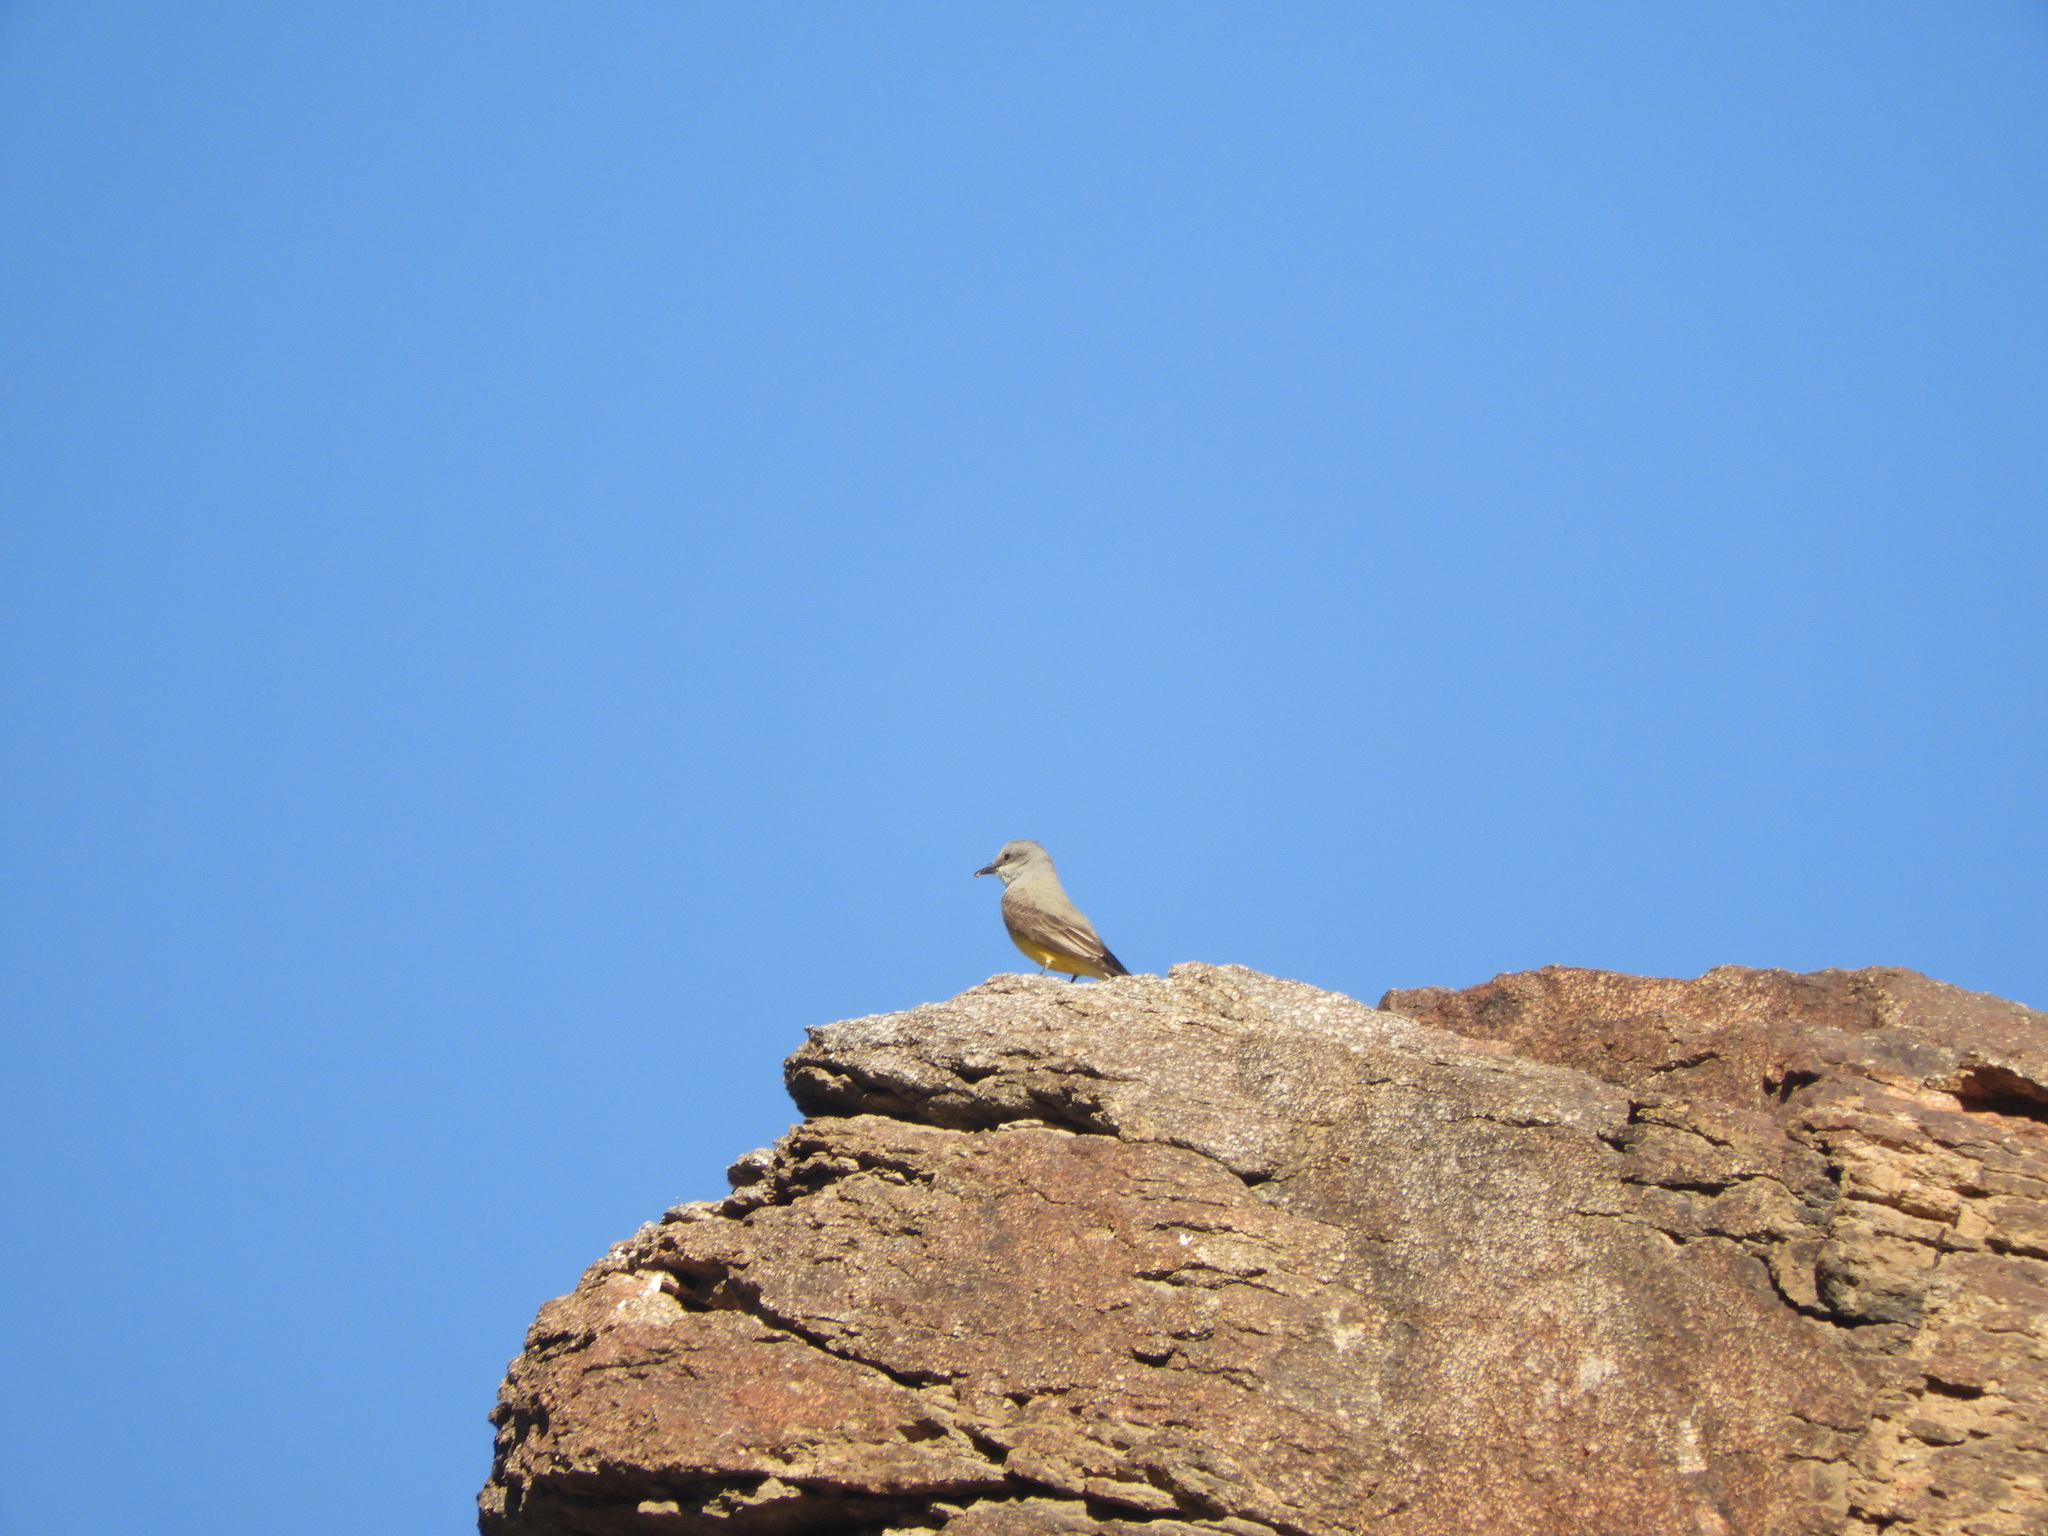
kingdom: Animalia
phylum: Chordata
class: Aves
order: Passeriformes
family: Tyrannidae
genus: Tyrannus
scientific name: Tyrannus verticalis
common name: Western kingbird
